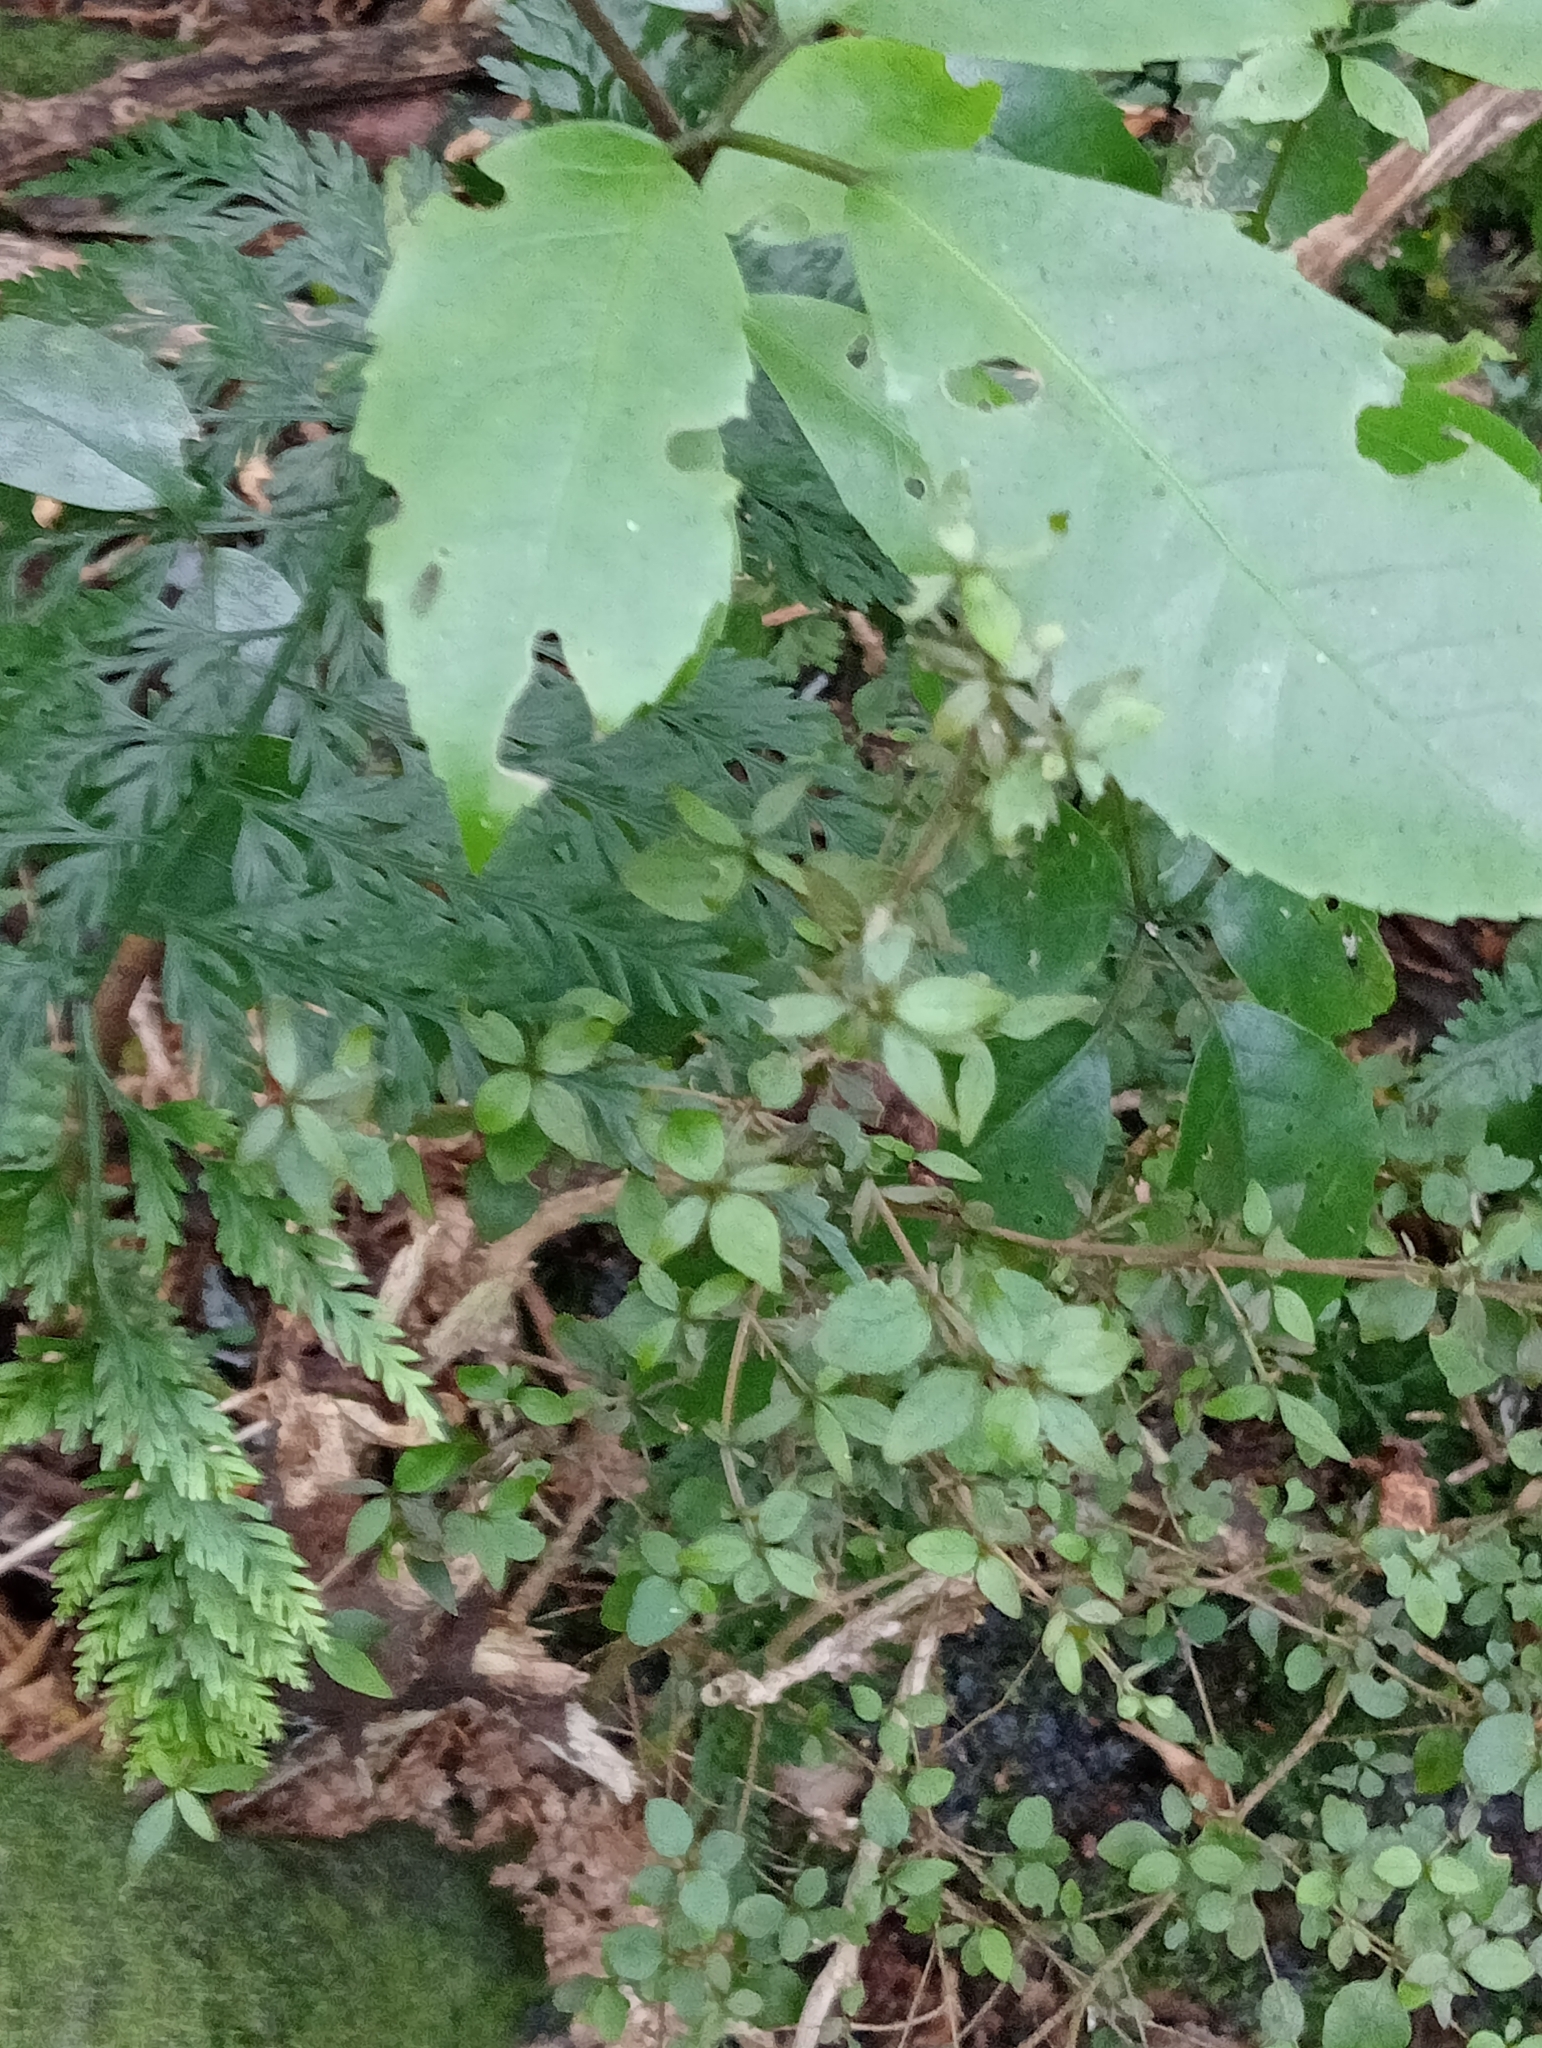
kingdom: Plantae
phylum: Tracheophyta
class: Magnoliopsida
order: Gentianales
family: Rubiaceae
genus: Coprosma
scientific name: Coprosma rhamnoides
